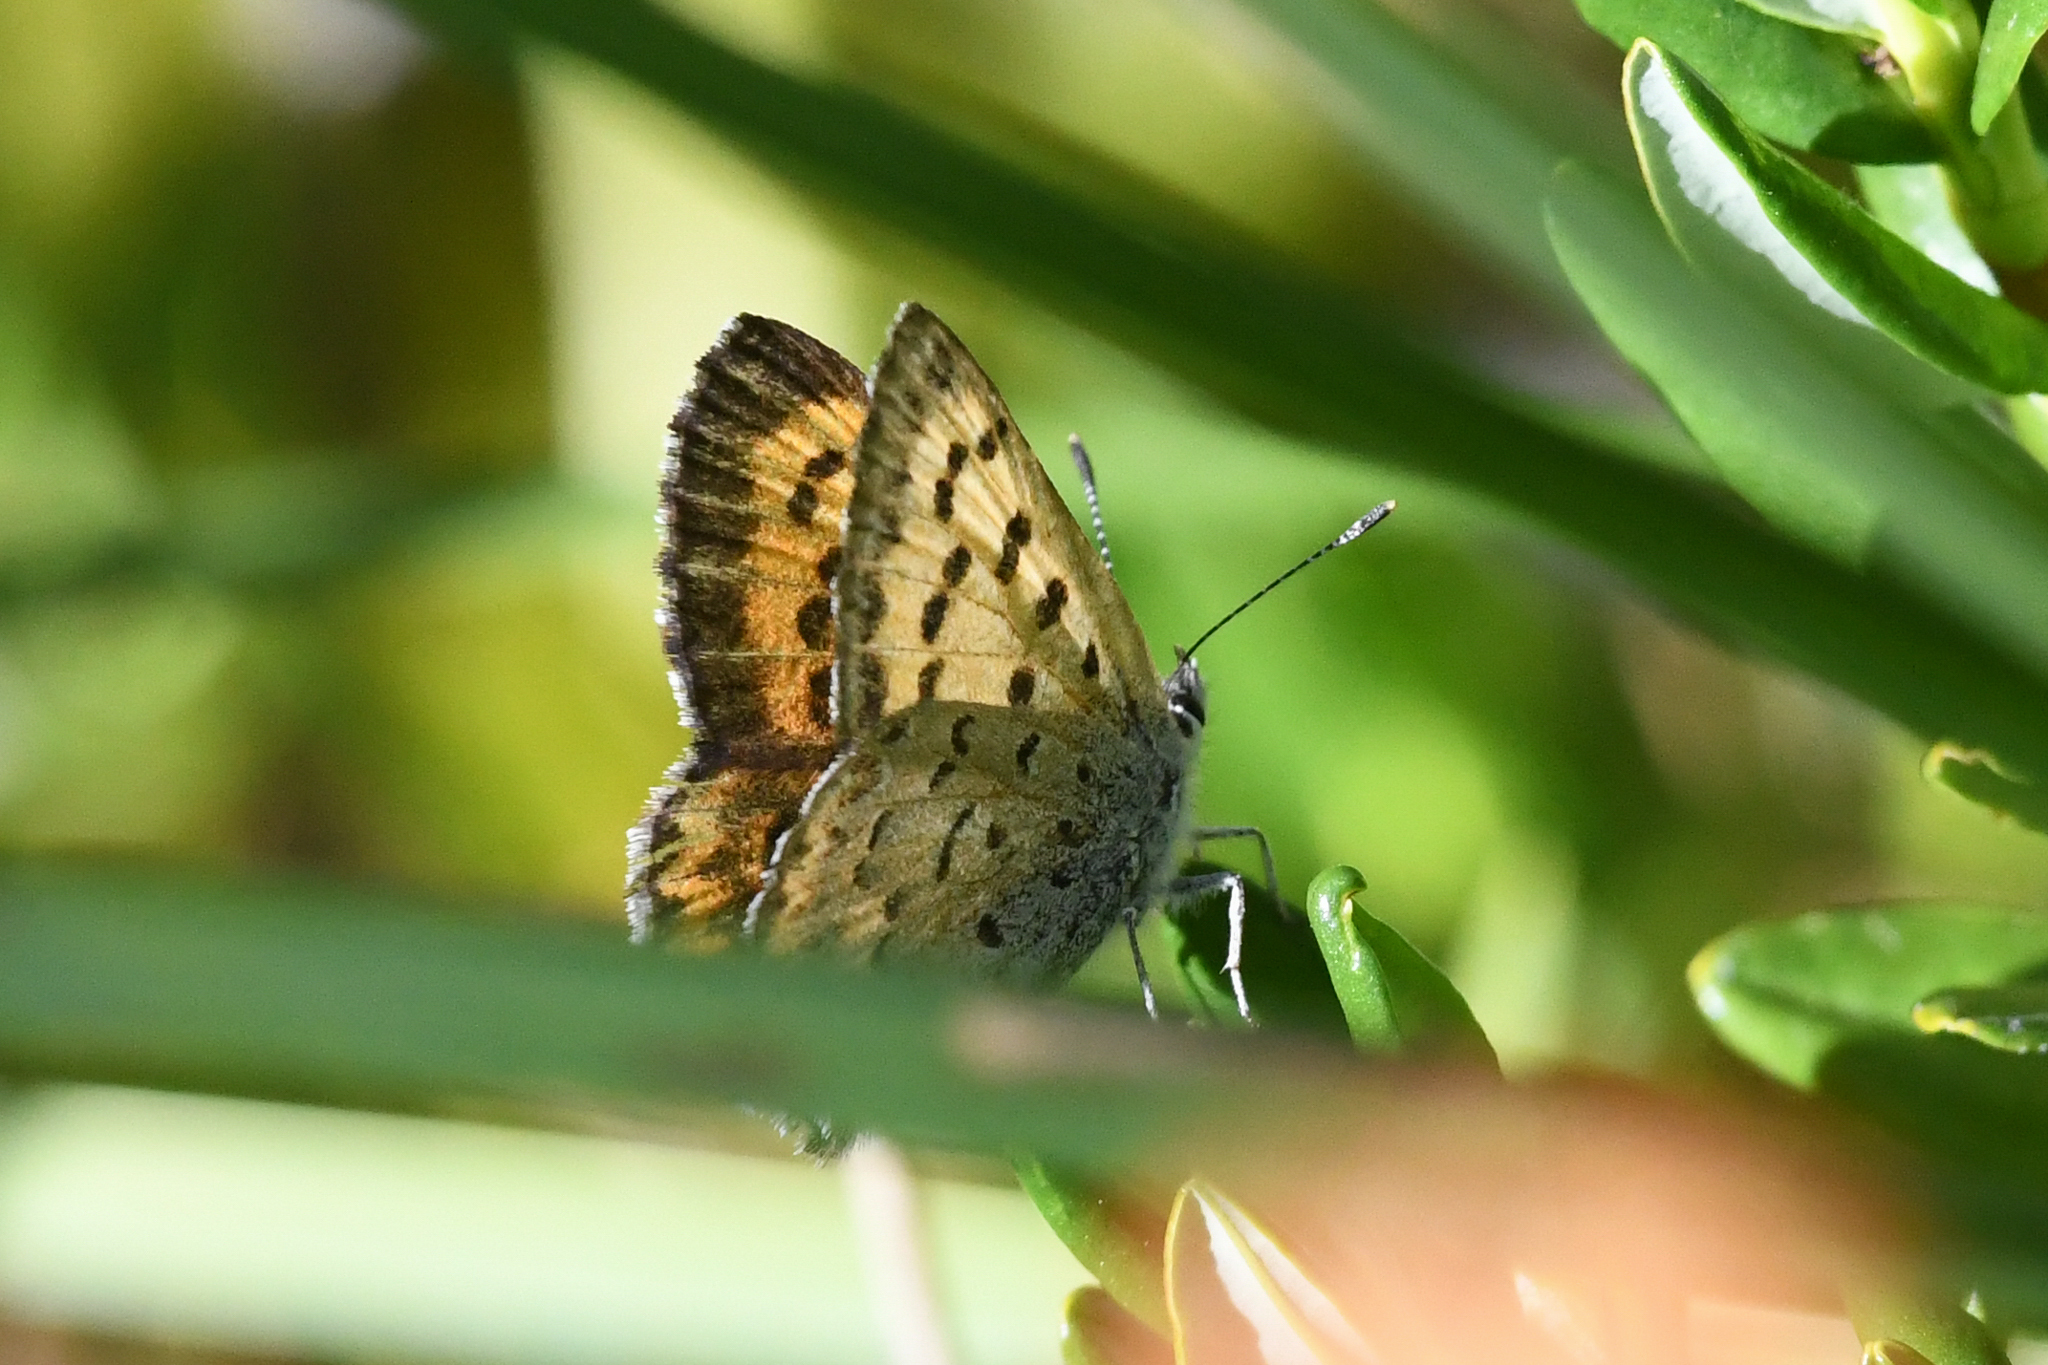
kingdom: Animalia
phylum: Arthropoda
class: Insecta
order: Lepidoptera
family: Lycaenidae
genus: Tharsalea
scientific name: Tharsalea mariposa
